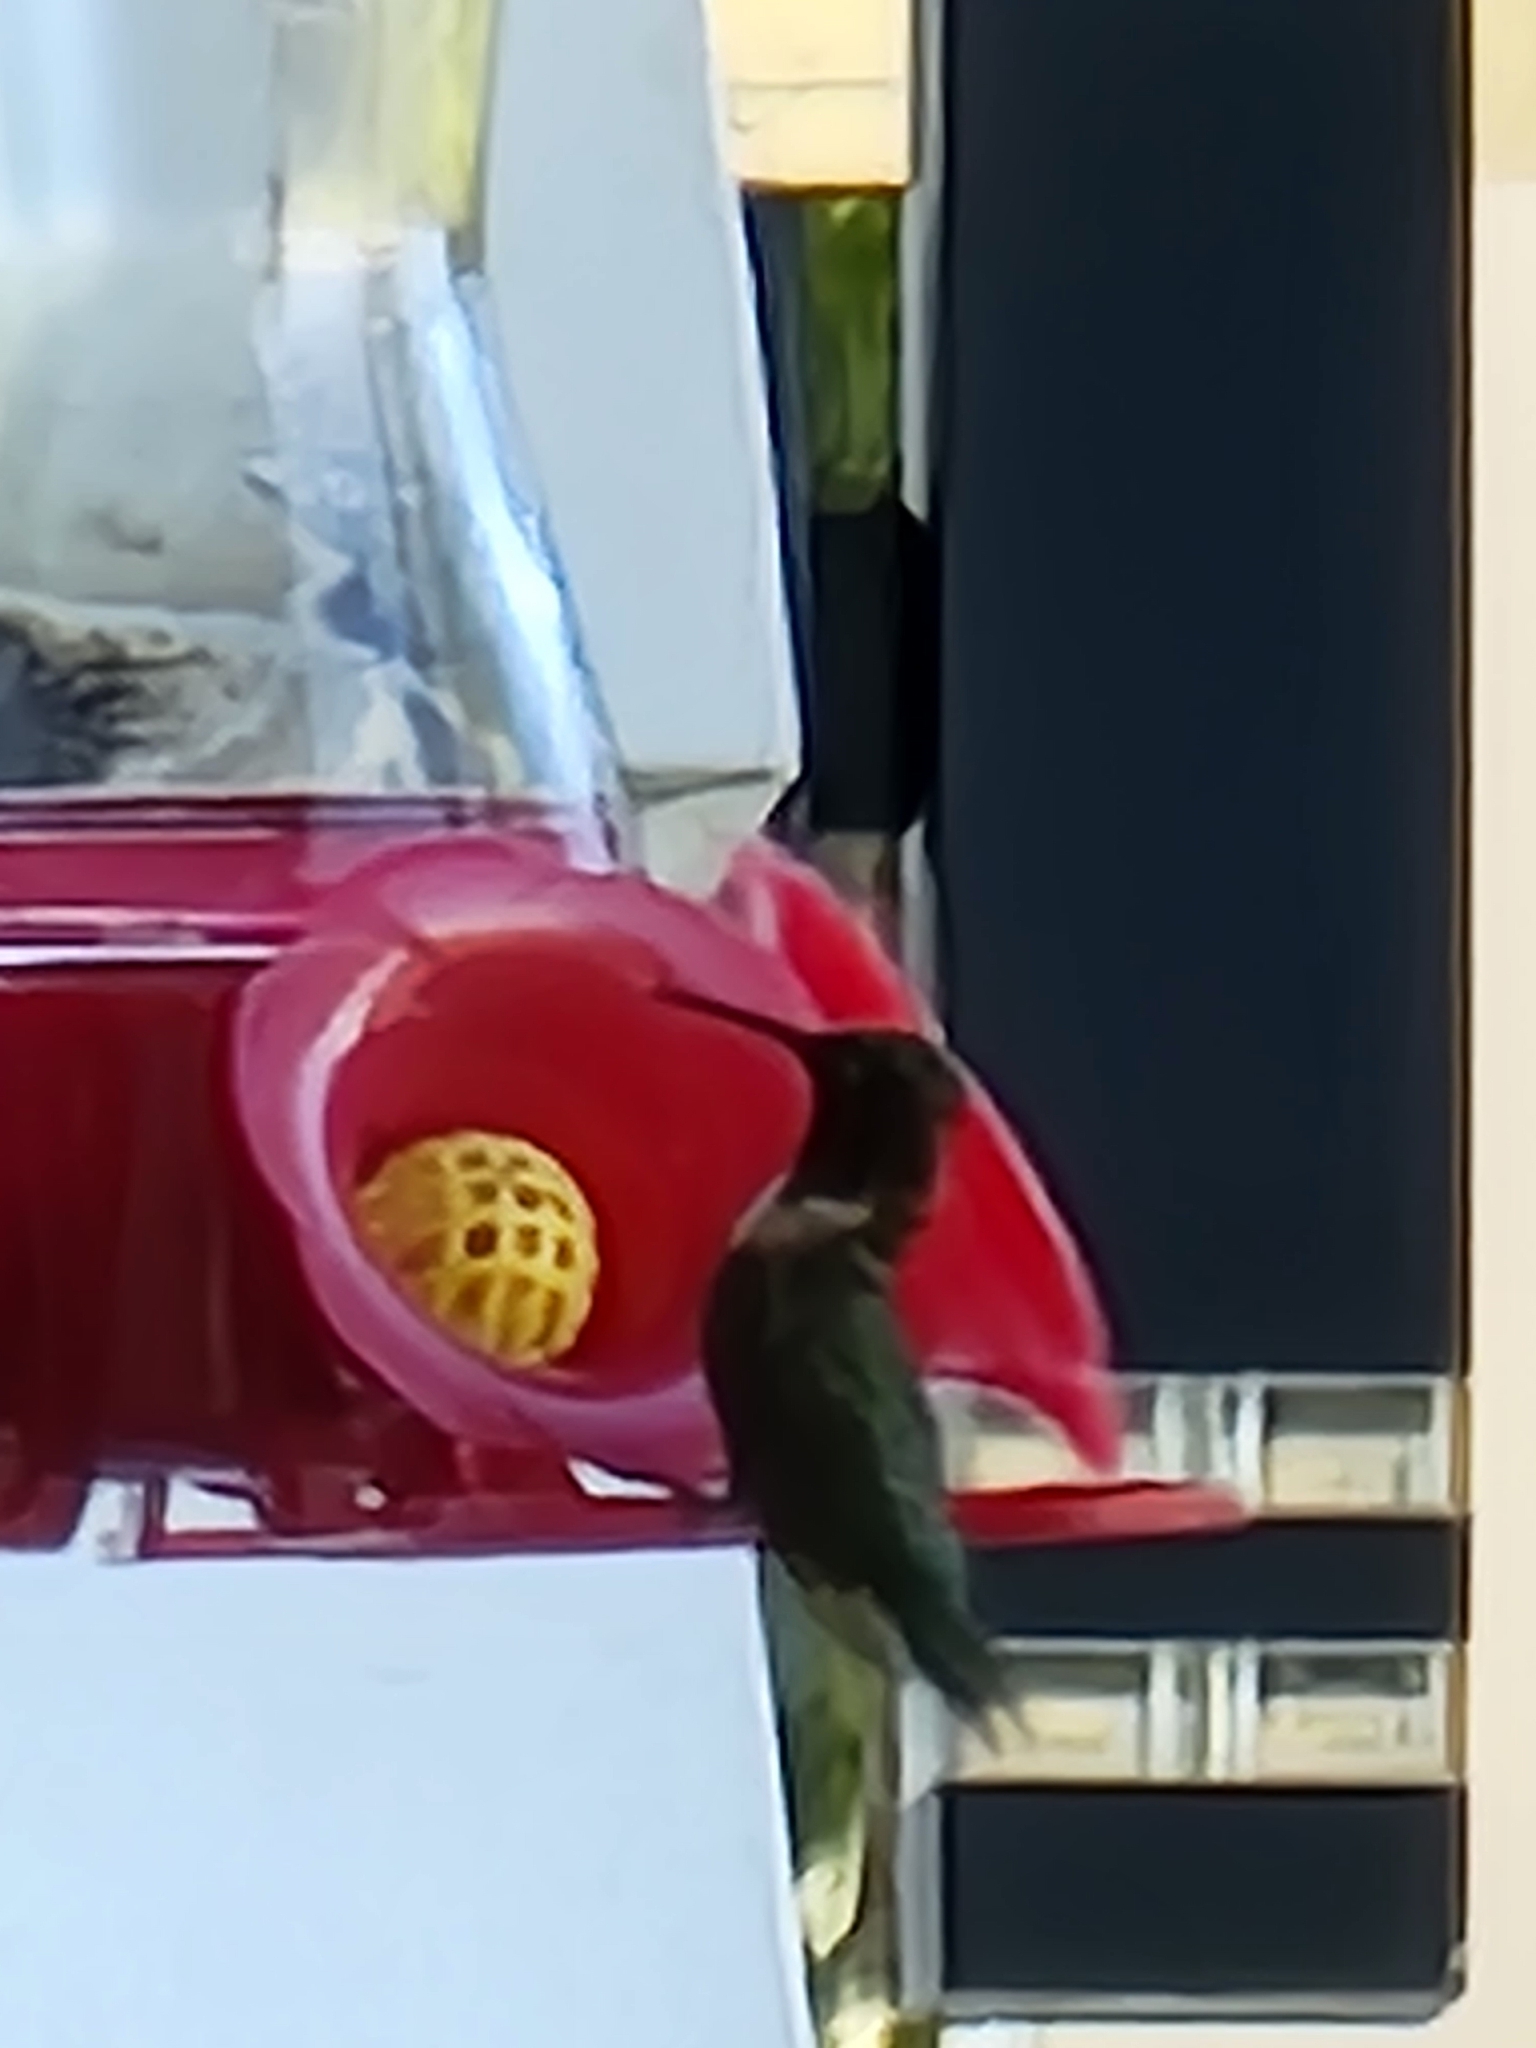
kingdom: Animalia
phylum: Chordata
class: Aves
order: Apodiformes
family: Trochilidae
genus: Archilochus
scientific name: Archilochus colubris
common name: Ruby-throated hummingbird
